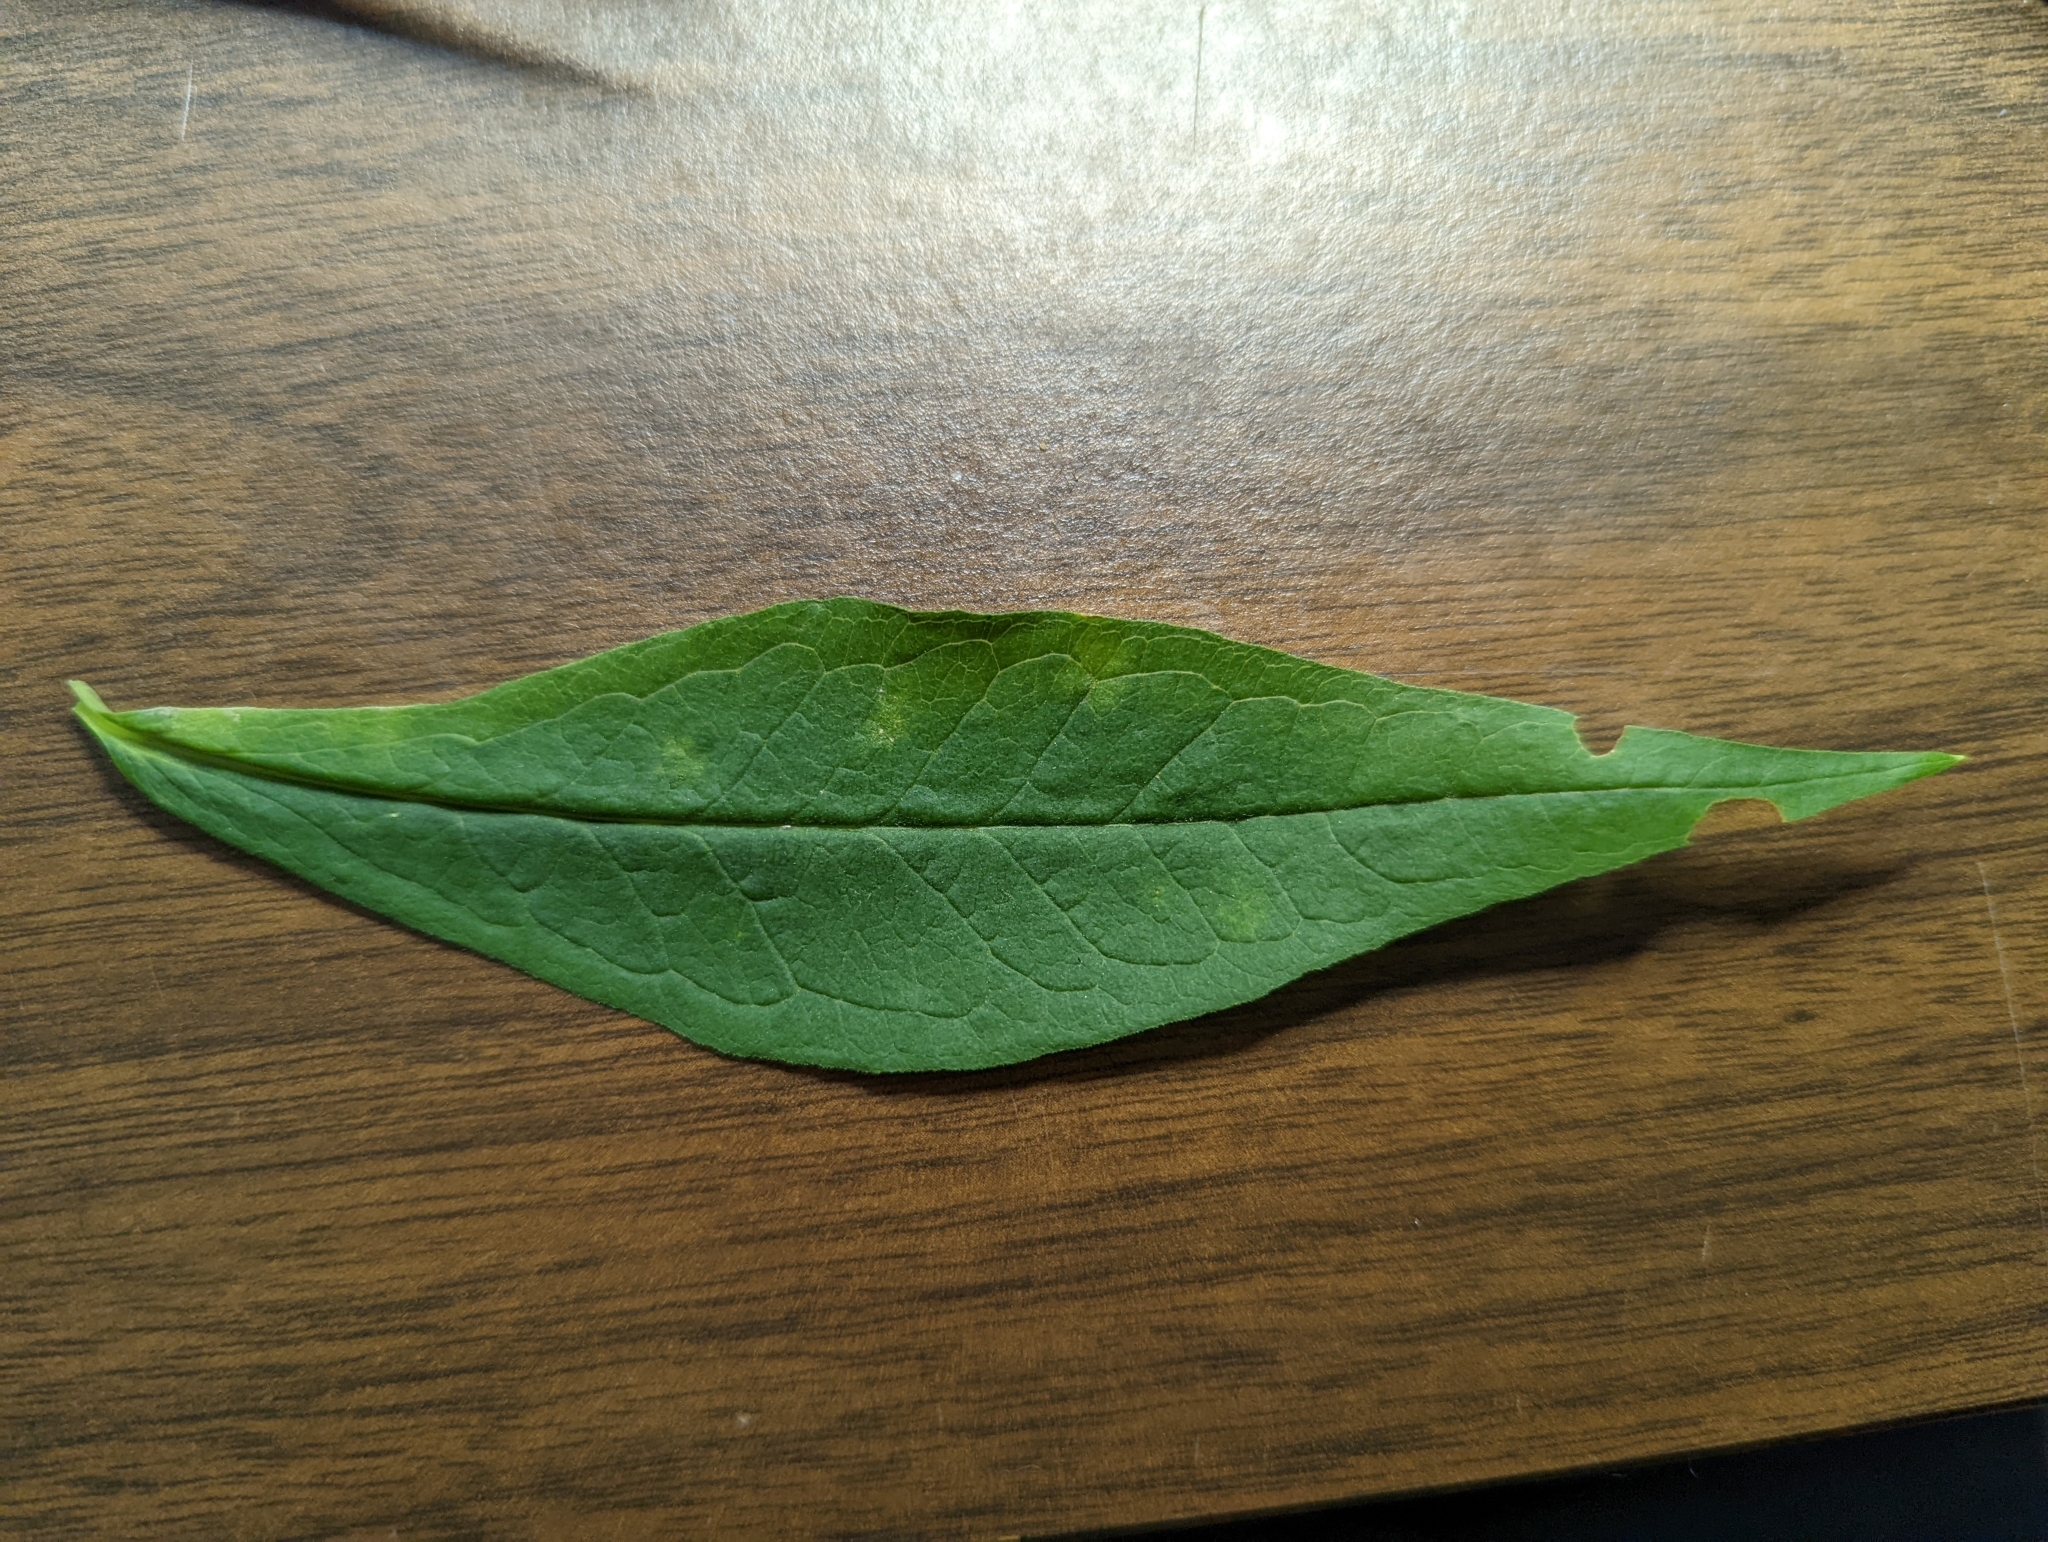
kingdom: Plantae
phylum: Tracheophyta
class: Magnoliopsida
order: Ericales
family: Polemoniaceae
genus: Phlox
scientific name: Phlox paniculata
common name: Fall phlox
